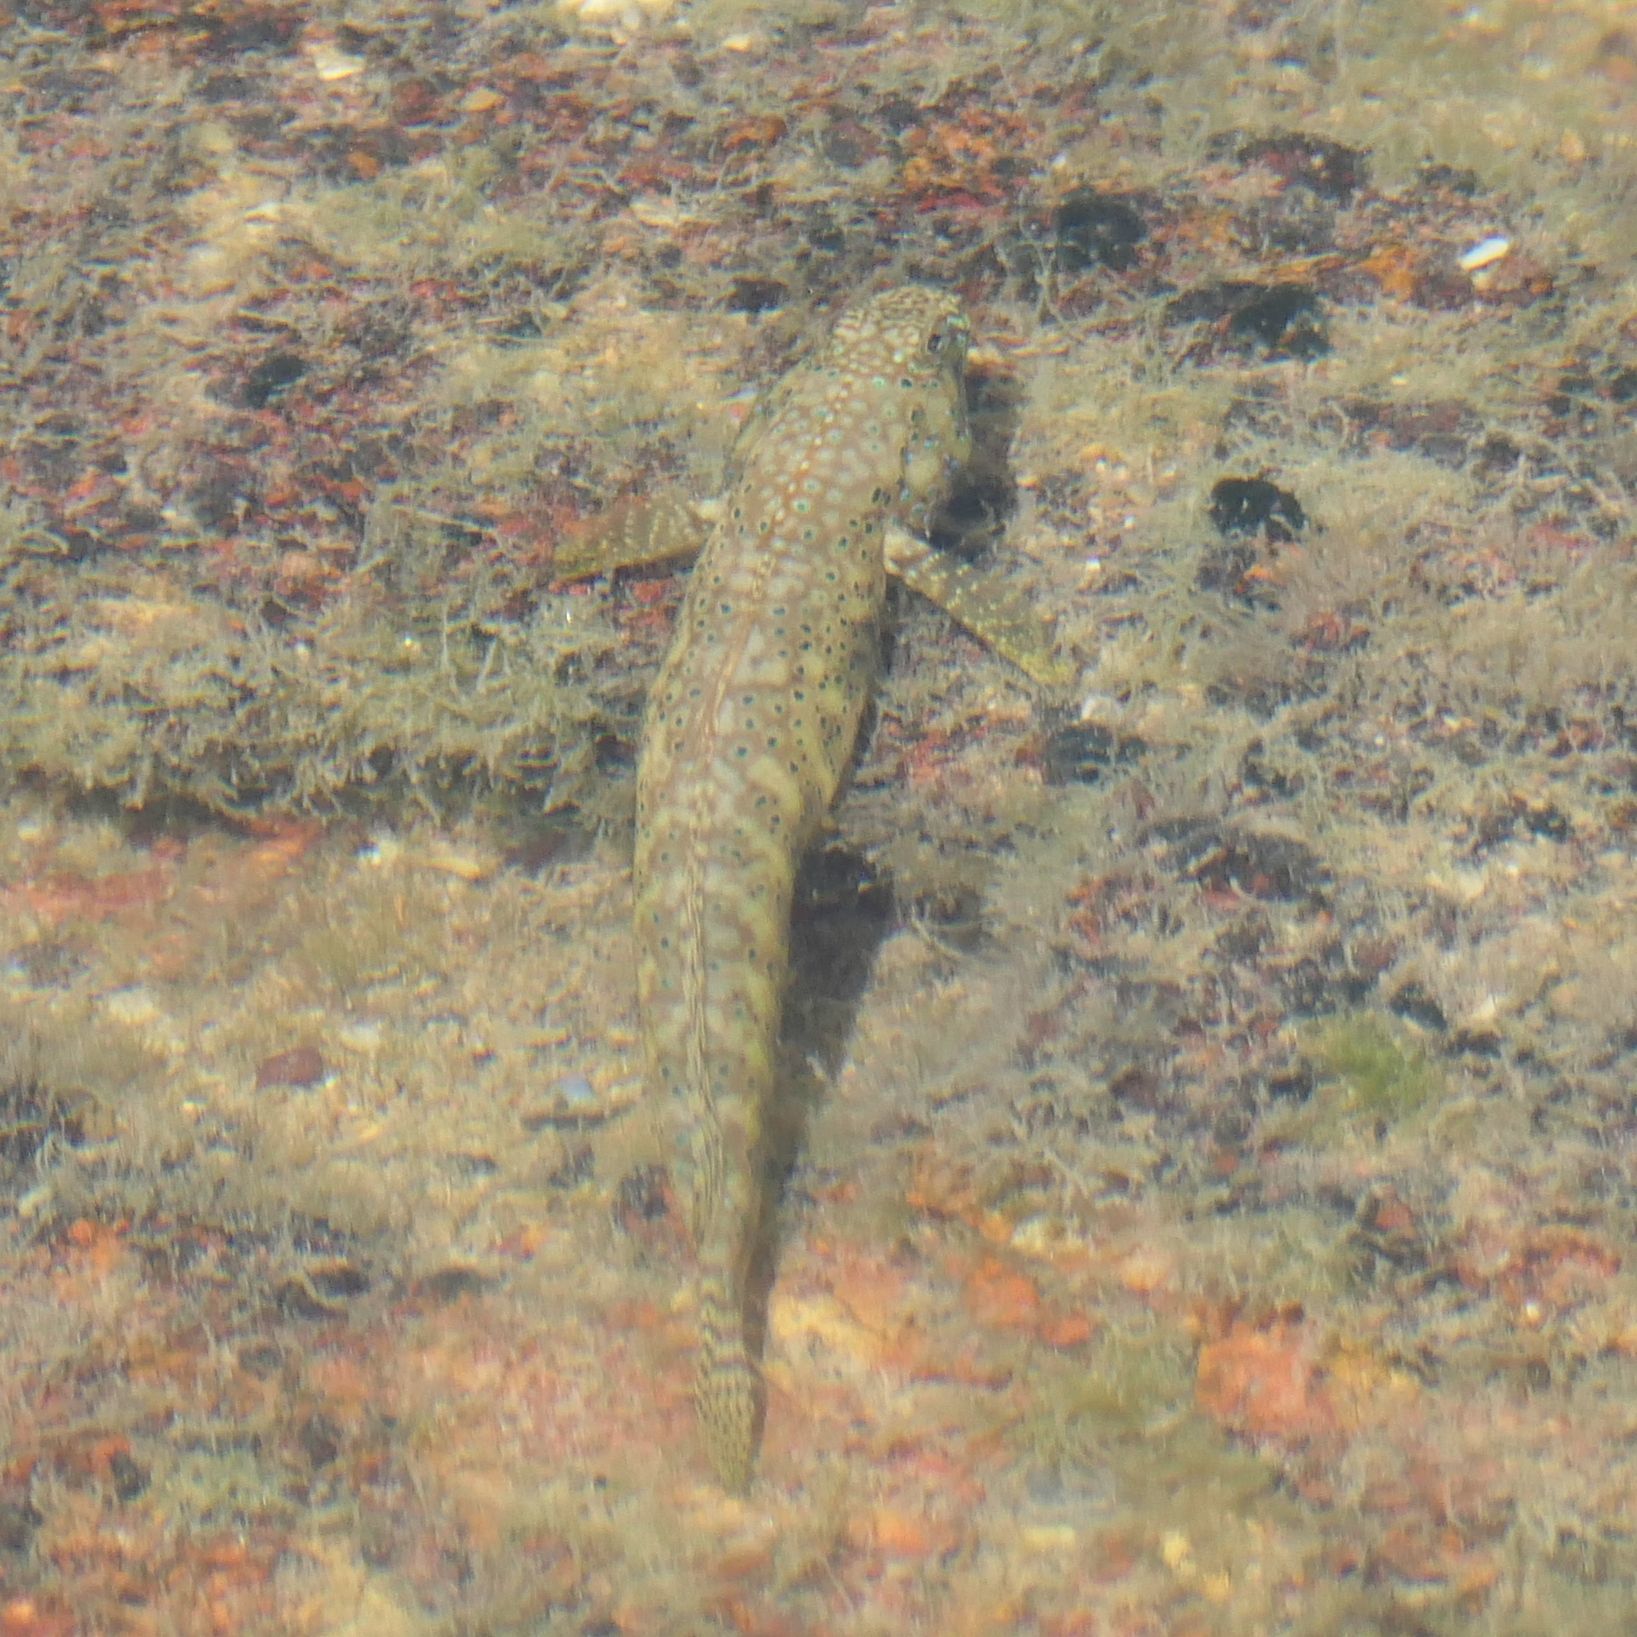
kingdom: Animalia
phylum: Chordata
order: Perciformes
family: Gobiidae
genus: Cryptocentroides
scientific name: Cryptocentroides insignis
